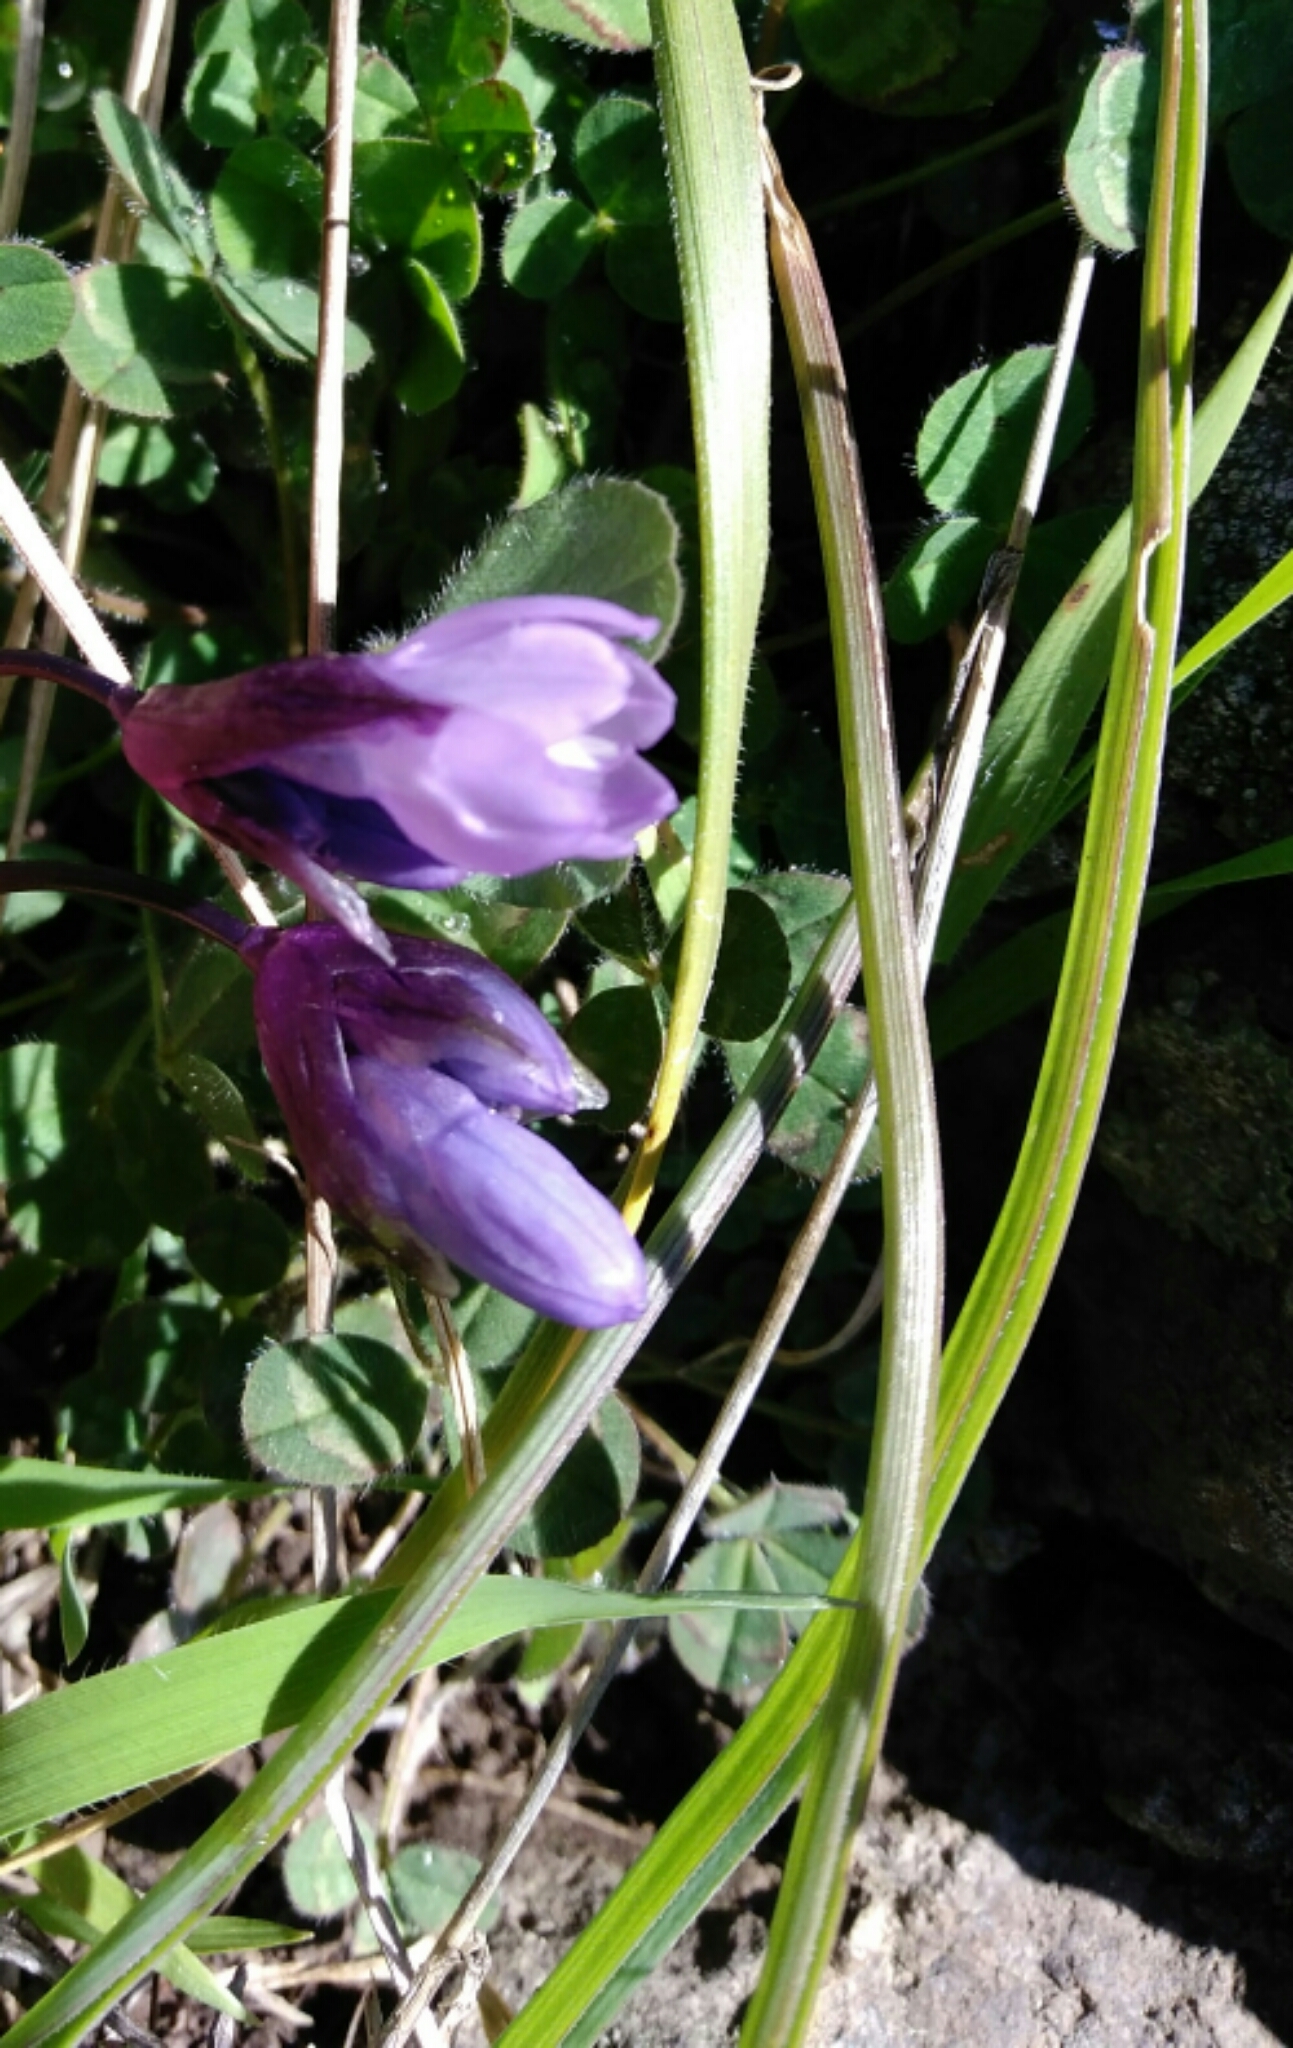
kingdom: Plantae
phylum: Tracheophyta
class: Liliopsida
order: Asparagales
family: Asparagaceae
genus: Dipterostemon
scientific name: Dipterostemon capitatus
